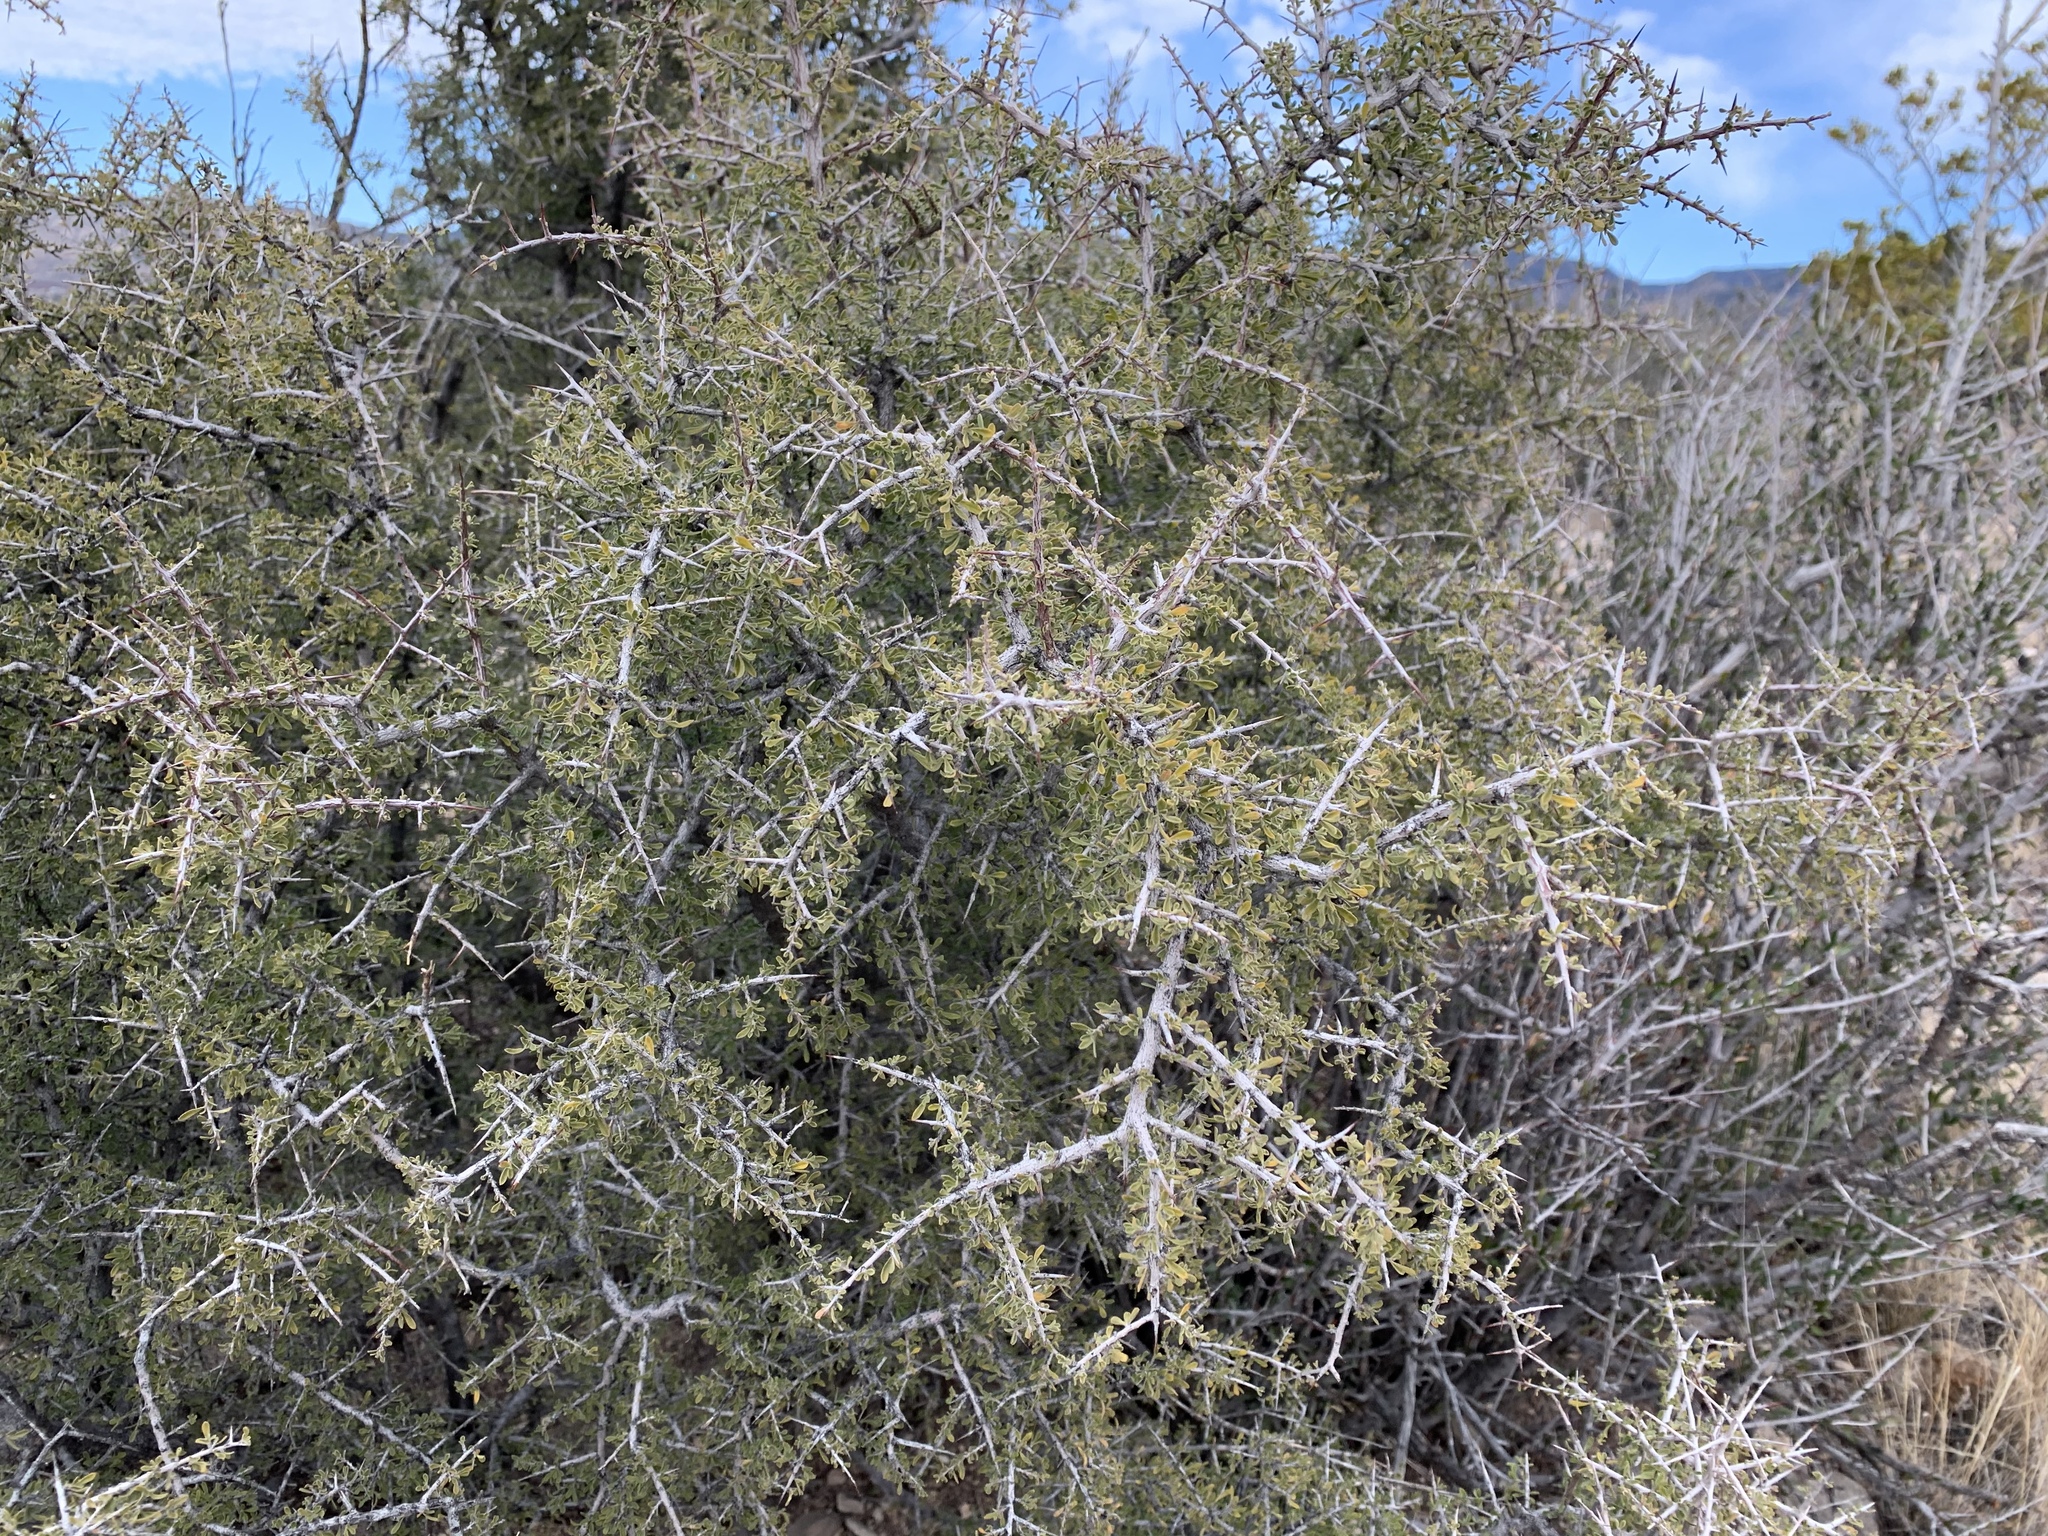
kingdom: Plantae
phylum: Tracheophyta
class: Magnoliopsida
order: Rosales
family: Rhamnaceae
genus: Condalia
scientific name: Condalia warnockii
